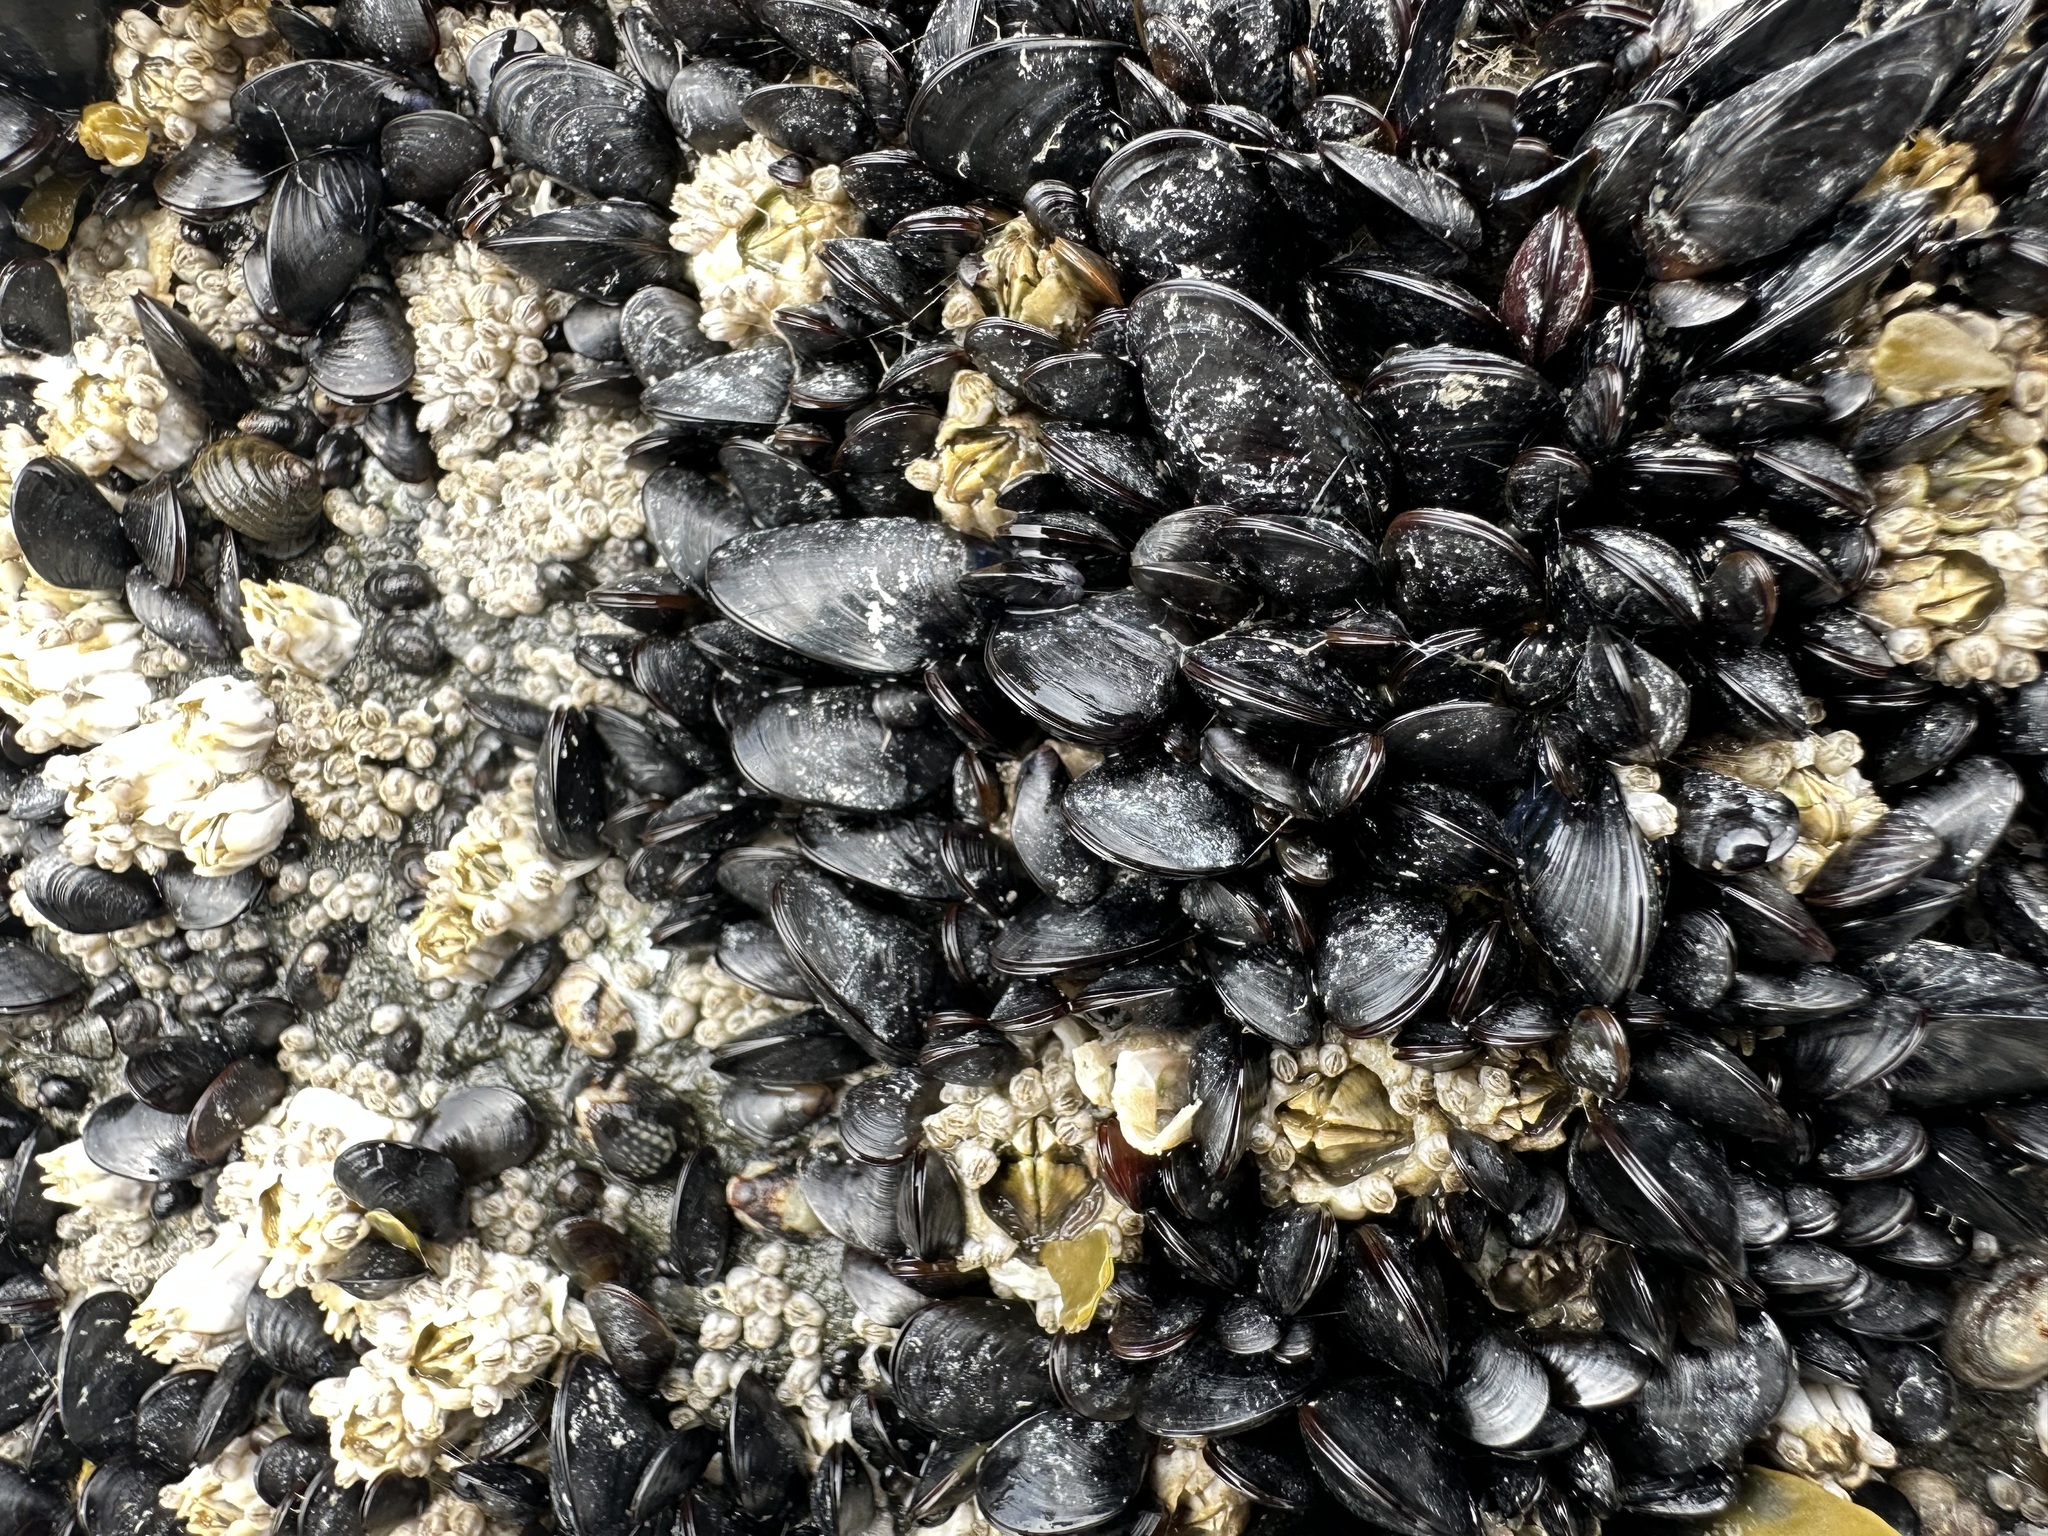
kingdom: Animalia
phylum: Mollusca
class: Bivalvia
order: Mytilida
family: Mytilidae
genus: Mytilus
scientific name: Mytilus trossulus
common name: Northern blue mussel
